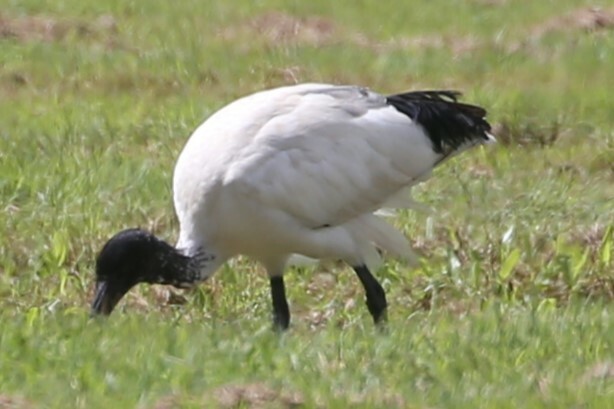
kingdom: Animalia
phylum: Chordata
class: Aves
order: Pelecaniformes
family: Threskiornithidae
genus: Threskiornis
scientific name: Threskiornis molucca
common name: Australian white ibis
